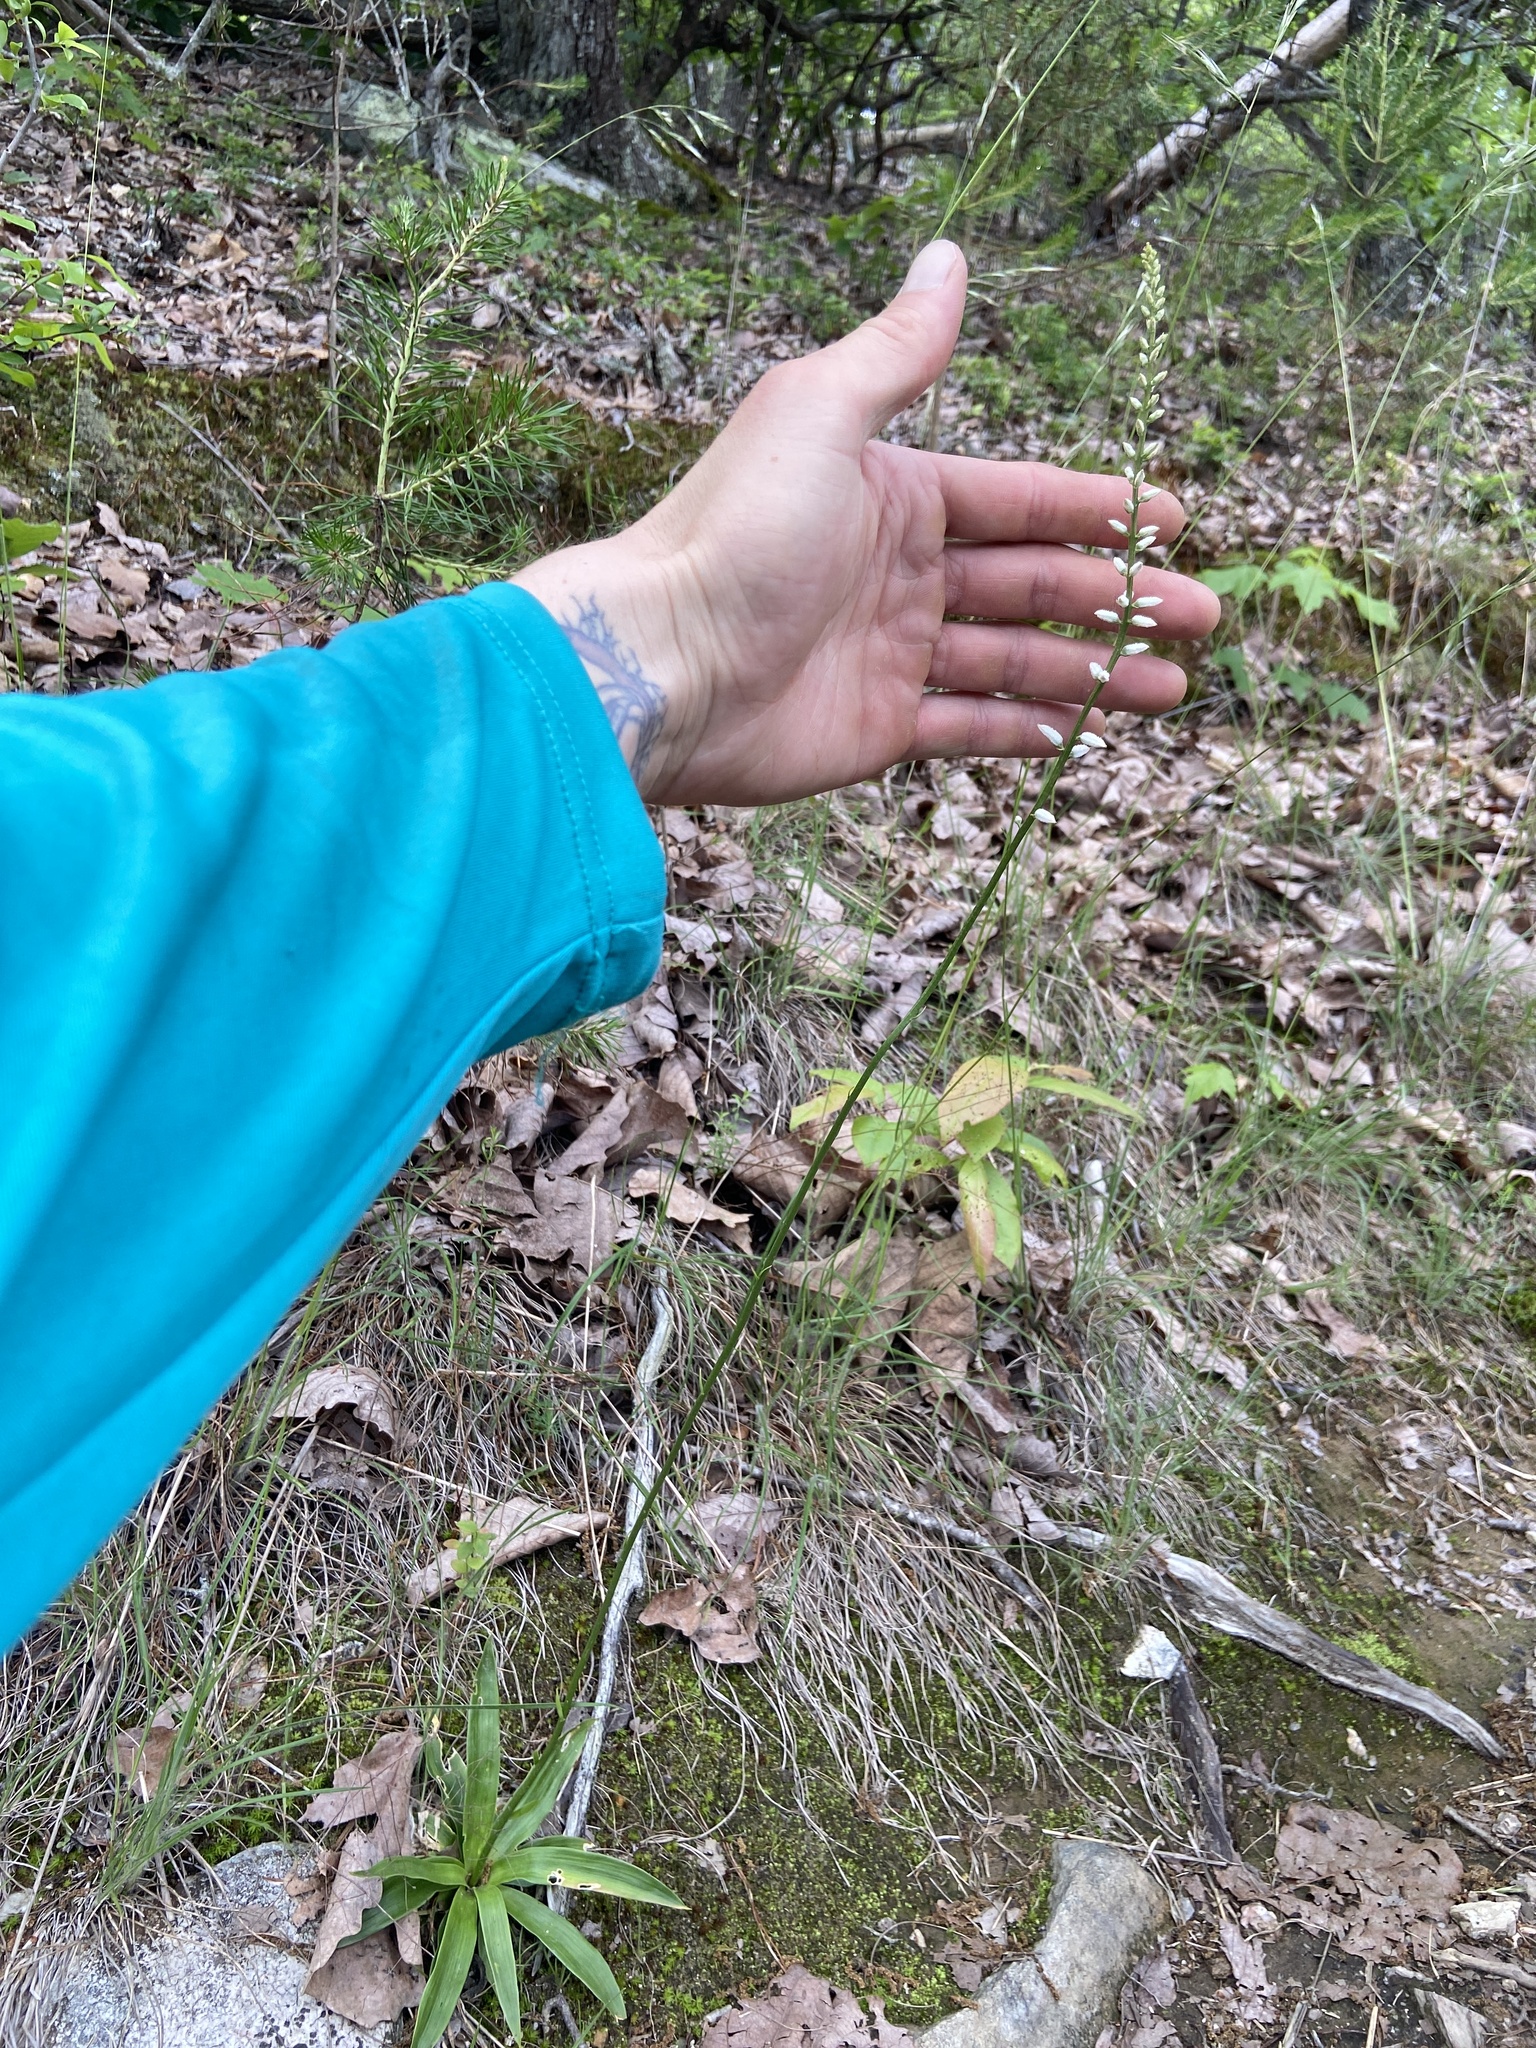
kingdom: Plantae
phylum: Tracheophyta
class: Liliopsida
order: Dioscoreales
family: Nartheciaceae
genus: Aletris
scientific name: Aletris farinosa
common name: Colicroot
